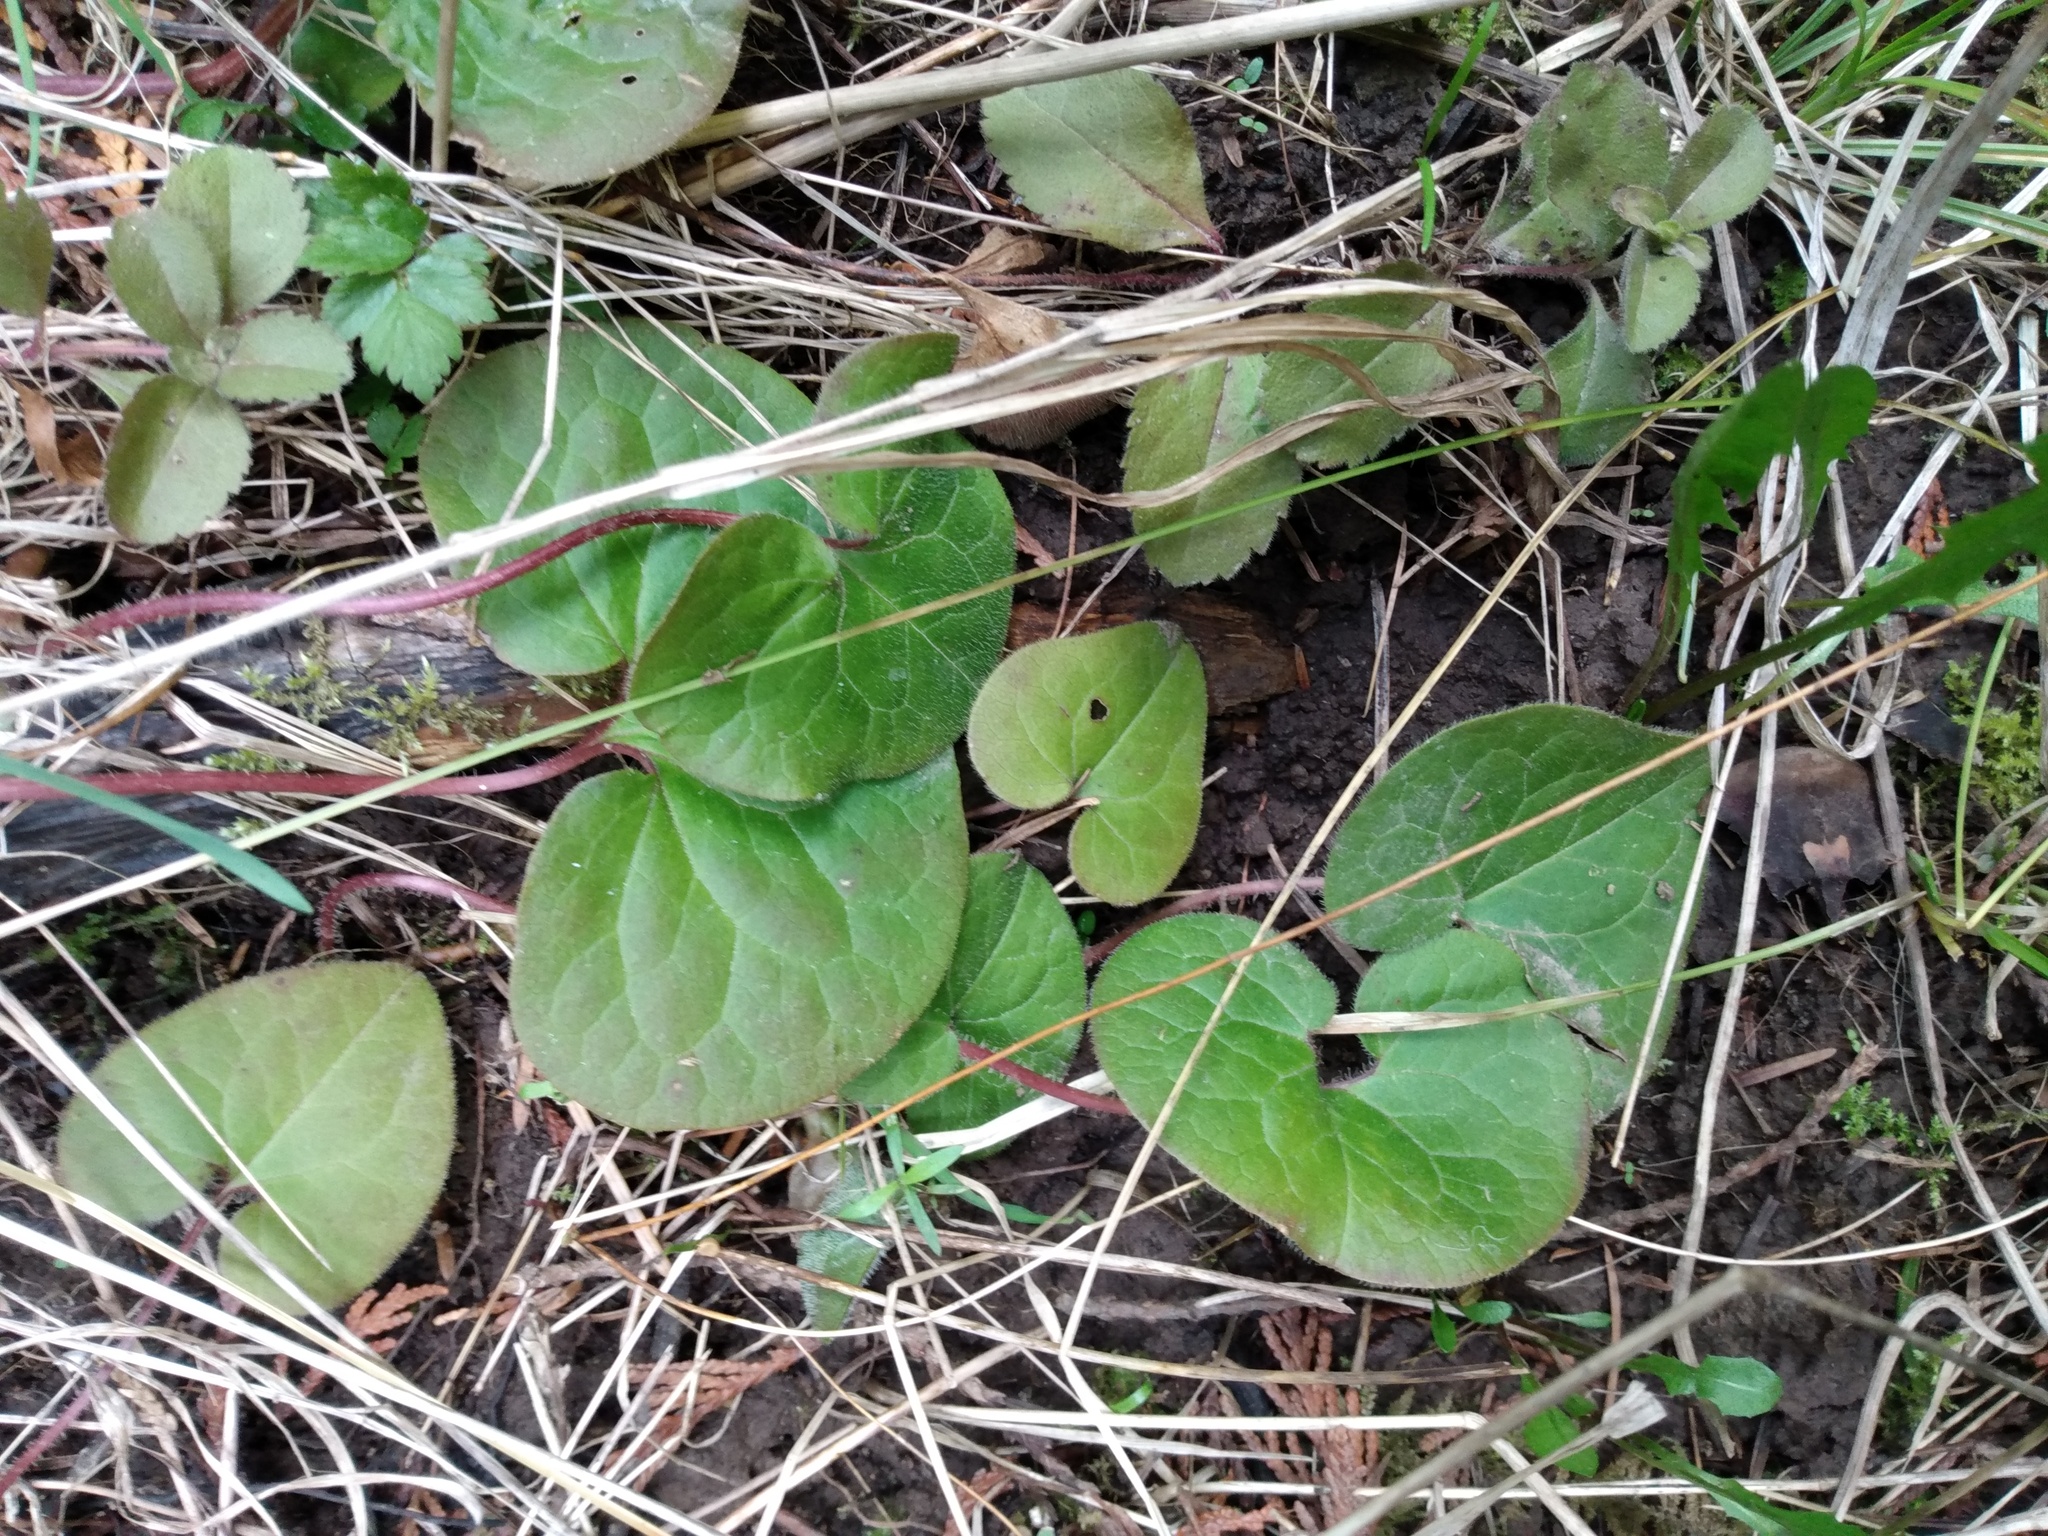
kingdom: Plantae
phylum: Tracheophyta
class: Magnoliopsida
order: Piperales
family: Aristolochiaceae
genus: Asarum
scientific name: Asarum caudatum
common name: Wild ginger
